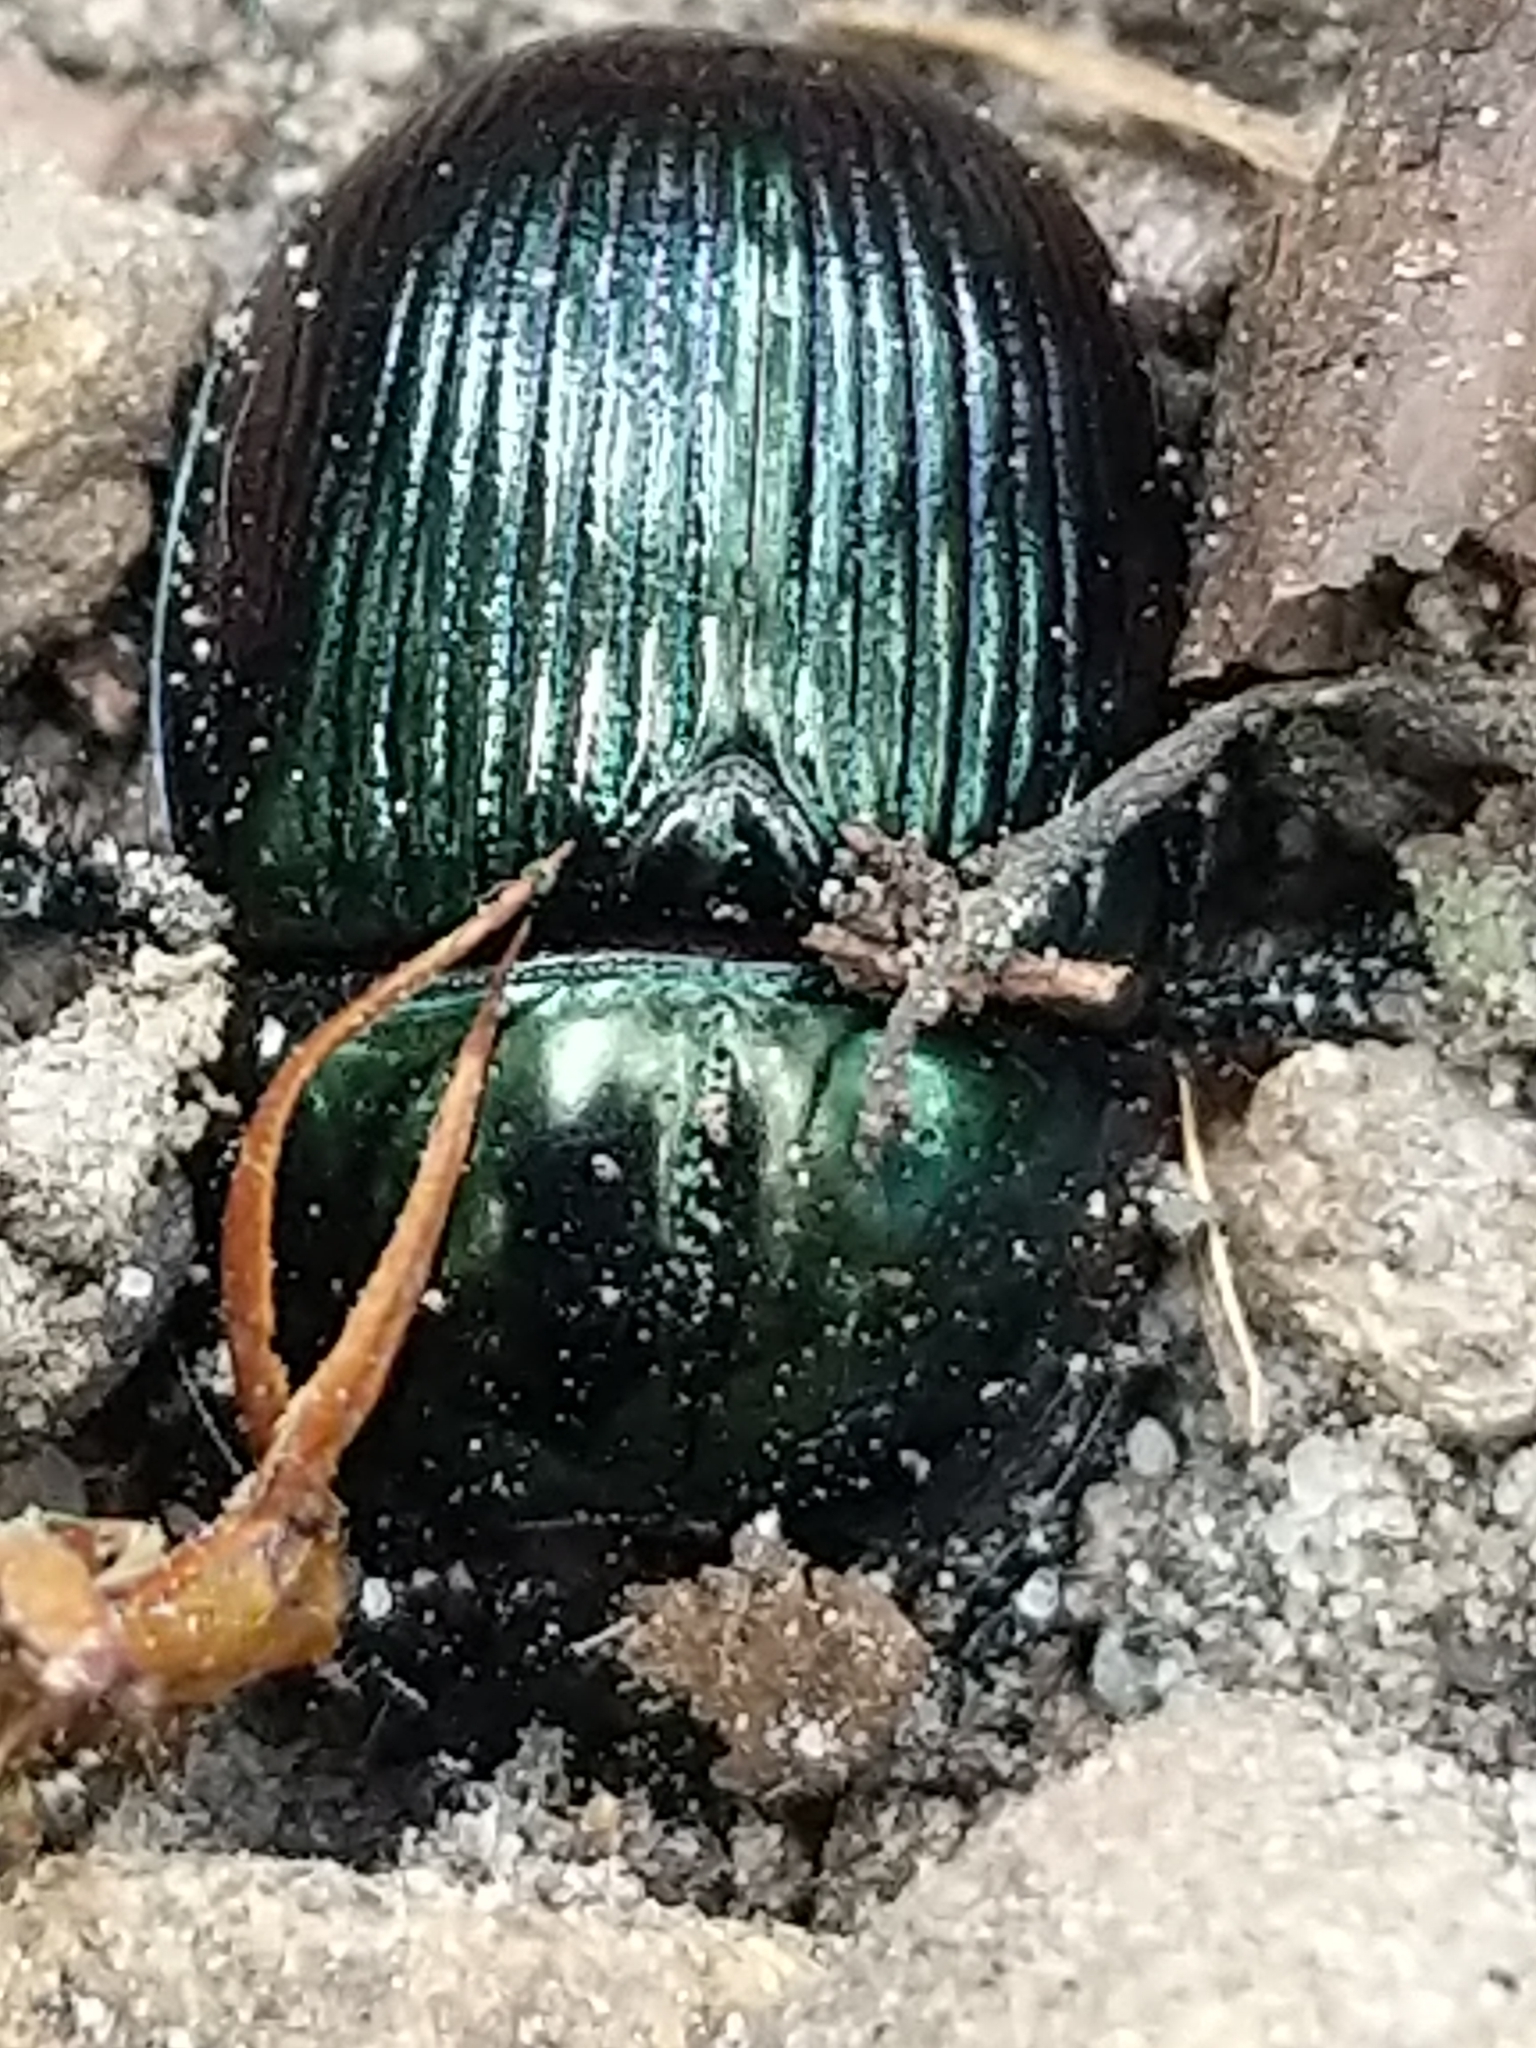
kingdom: Animalia
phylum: Arthropoda
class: Insecta
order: Coleoptera
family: Geotrupidae
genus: Anoplotrupes
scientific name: Anoplotrupes balyi
